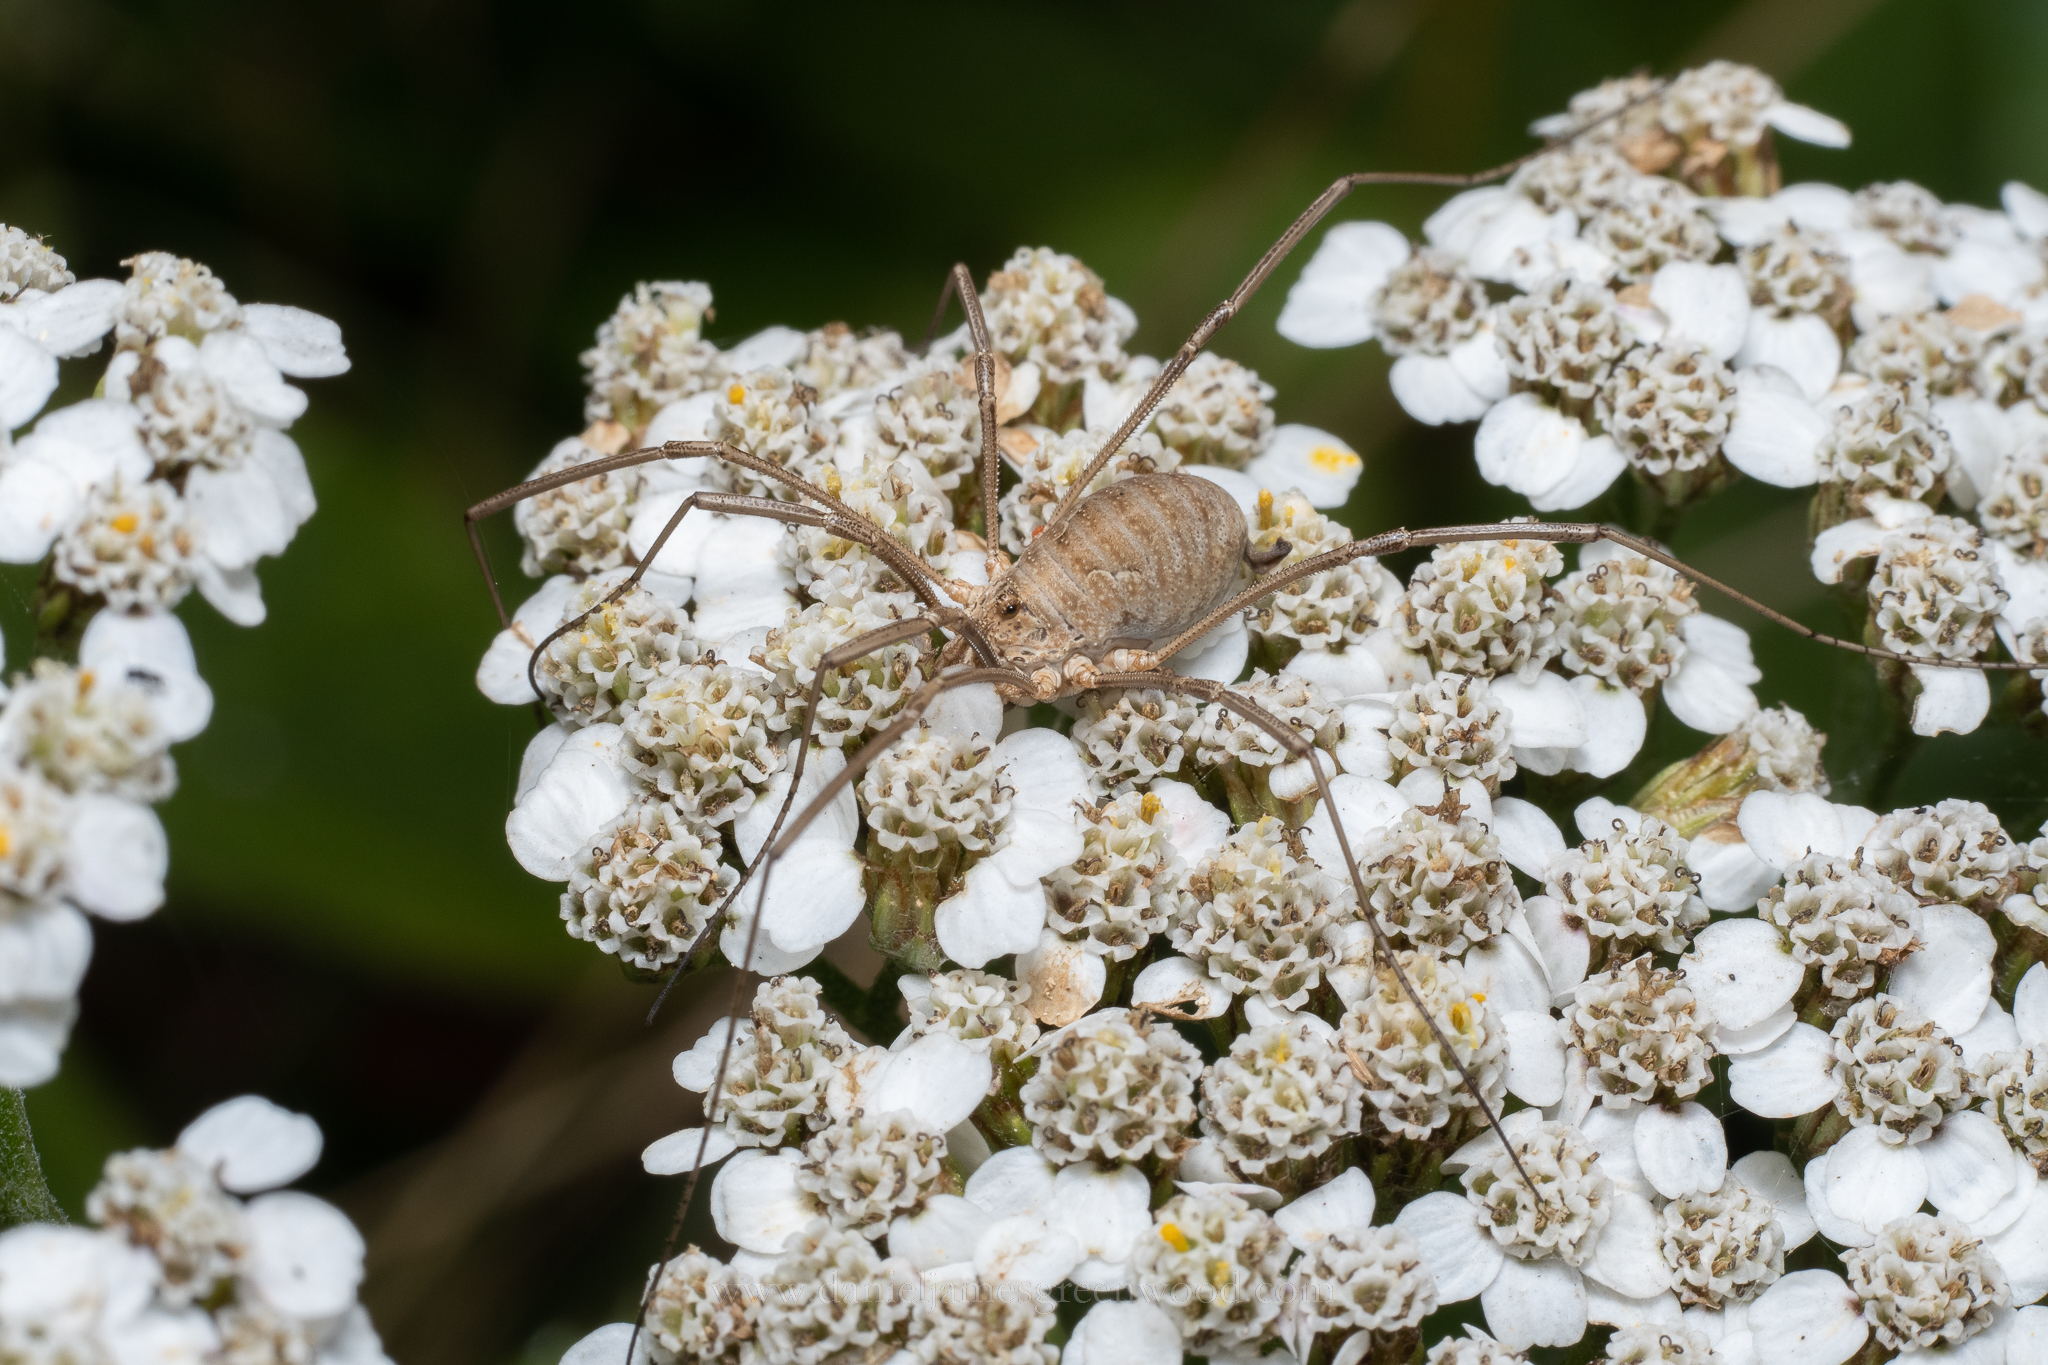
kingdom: Animalia
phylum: Arthropoda
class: Arachnida
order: Opiliones
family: Phalangiidae
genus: Phalangium
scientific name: Phalangium opilio
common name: Daddy longleg
